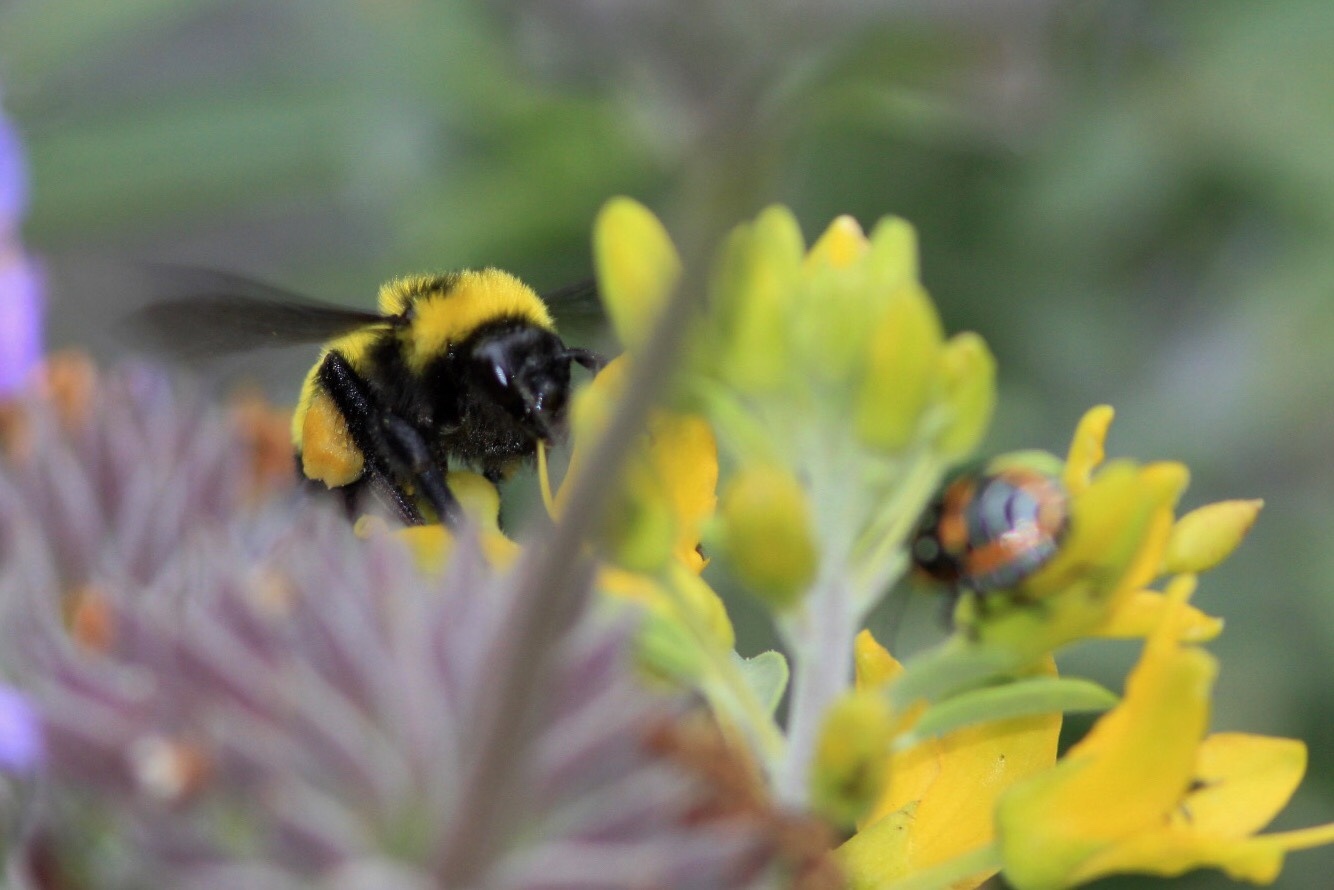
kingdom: Animalia
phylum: Arthropoda
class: Insecta
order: Hymenoptera
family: Apidae
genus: Bombus
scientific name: Bombus sonorus
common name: Sonoran bumble bee
